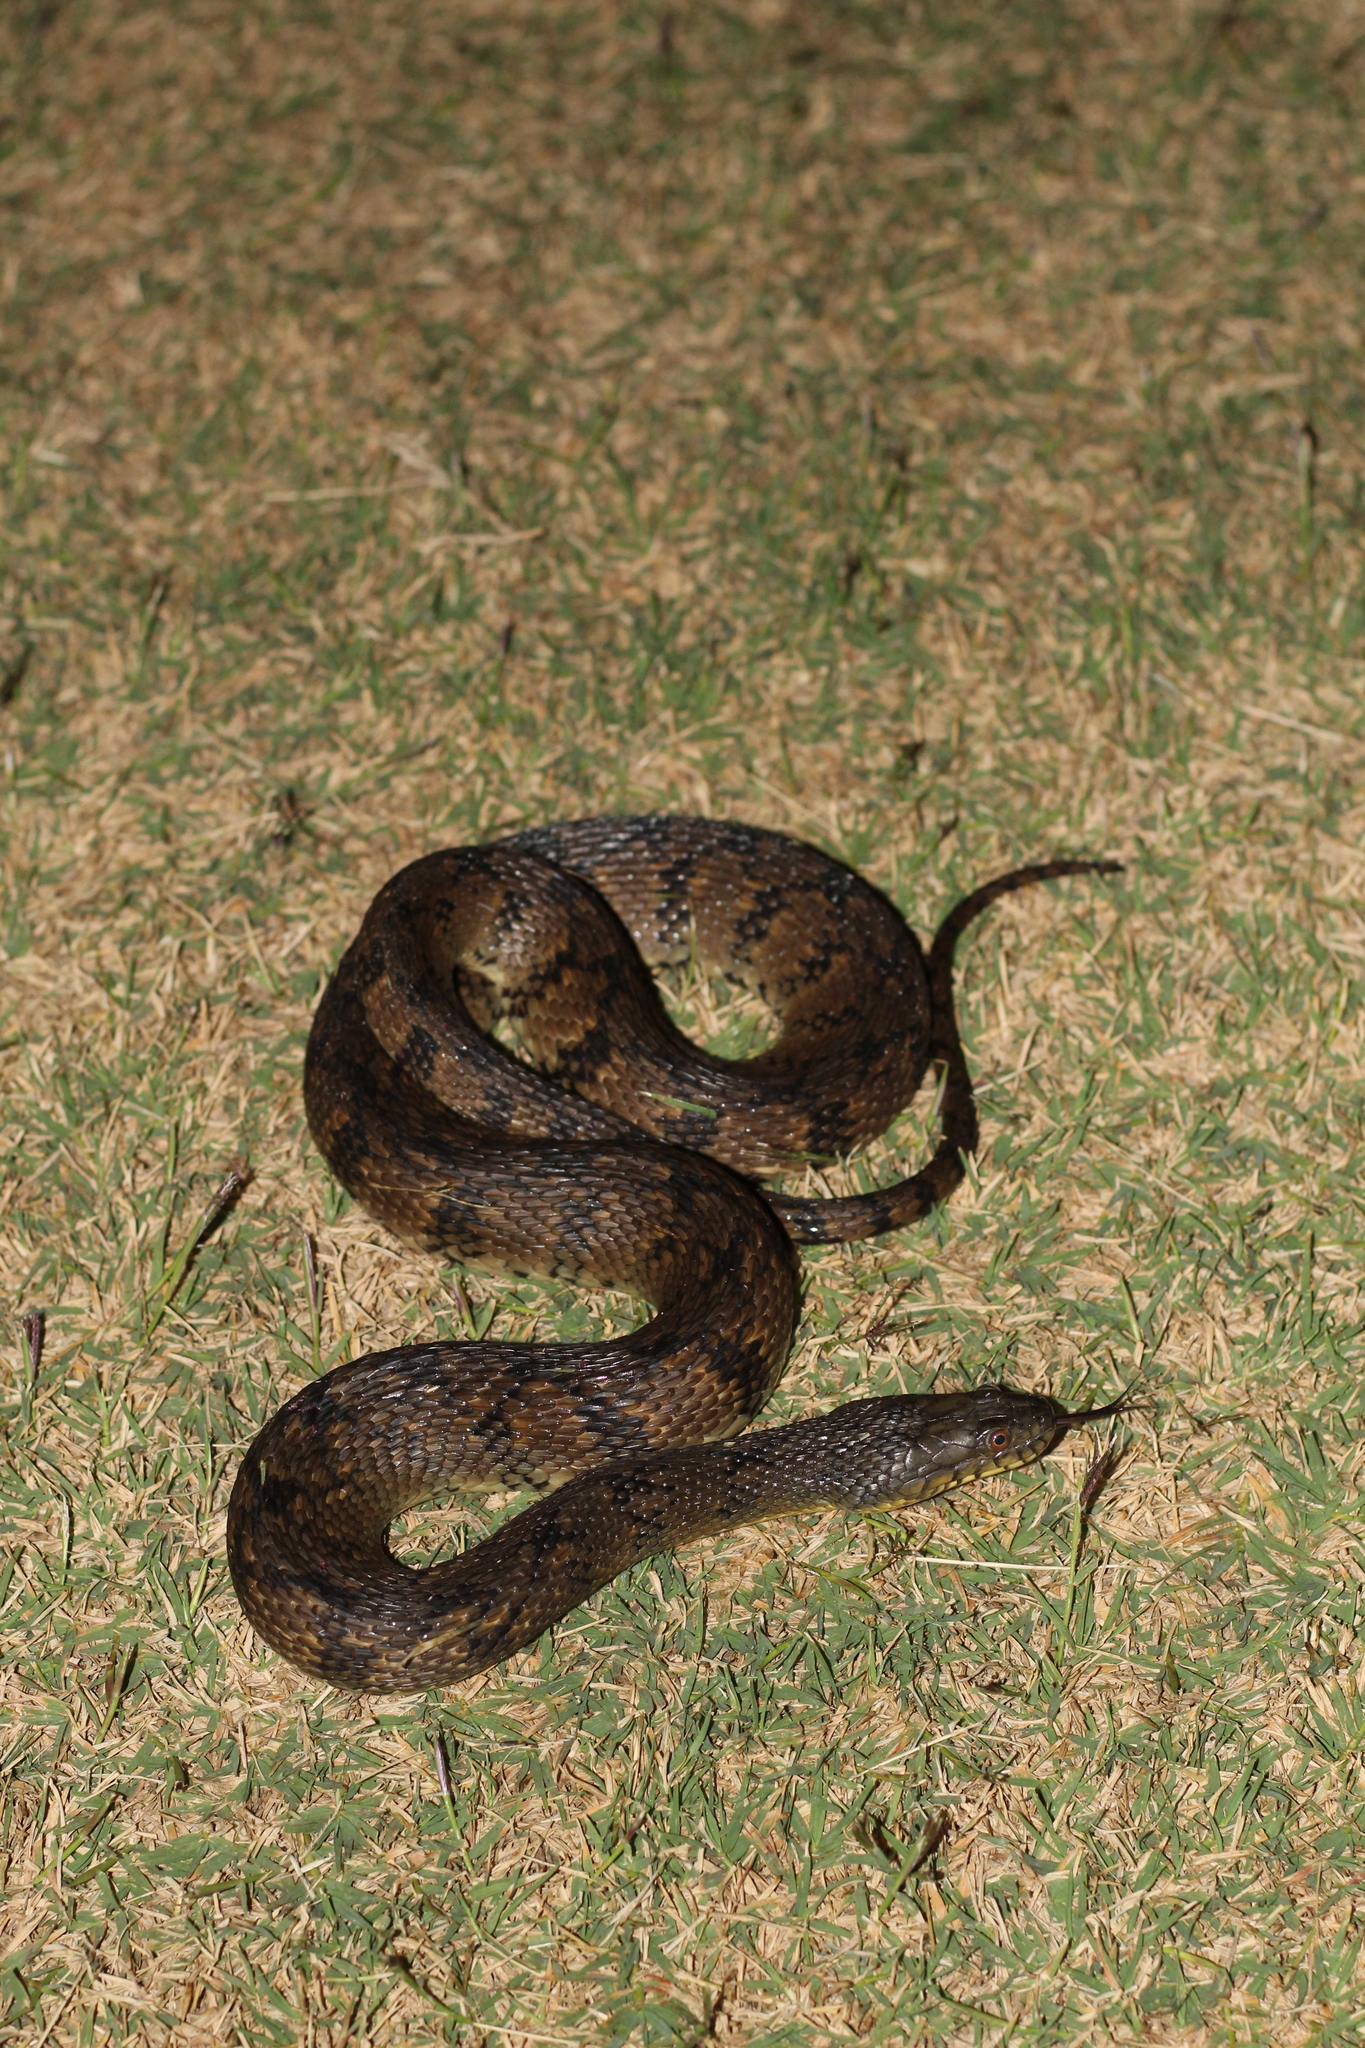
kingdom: Animalia
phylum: Chordata
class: Squamata
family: Colubridae
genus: Nerodia
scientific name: Nerodia rhombifer
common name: Diamondback water snake
